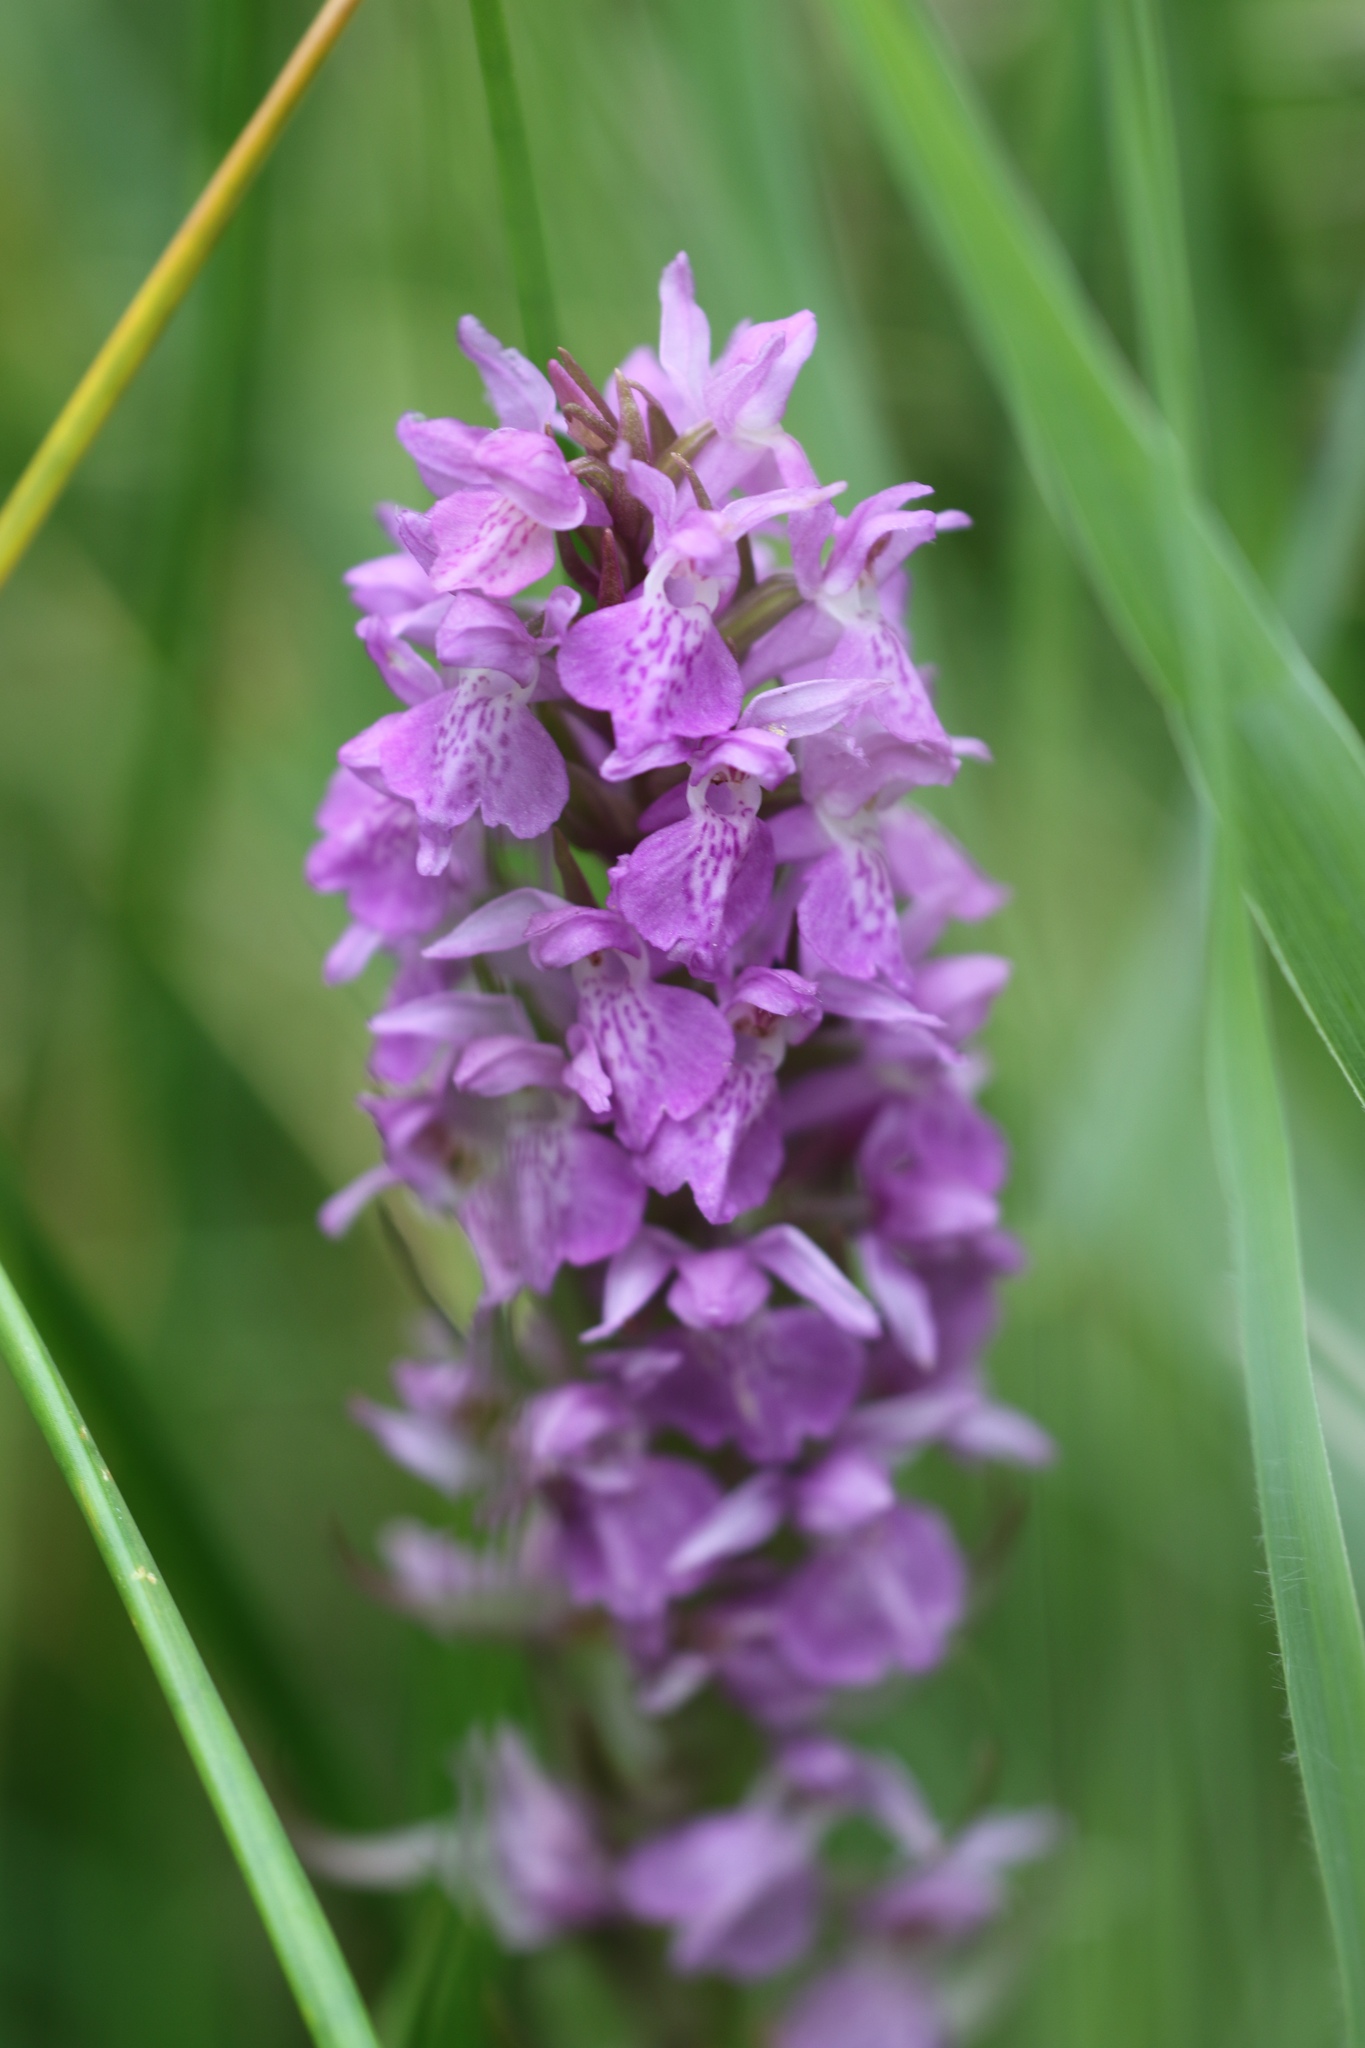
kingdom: Plantae
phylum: Tracheophyta
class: Liliopsida
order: Asparagales
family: Orchidaceae
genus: Dactylorhiza
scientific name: Dactylorhiza majalis
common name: Marsh orchid
